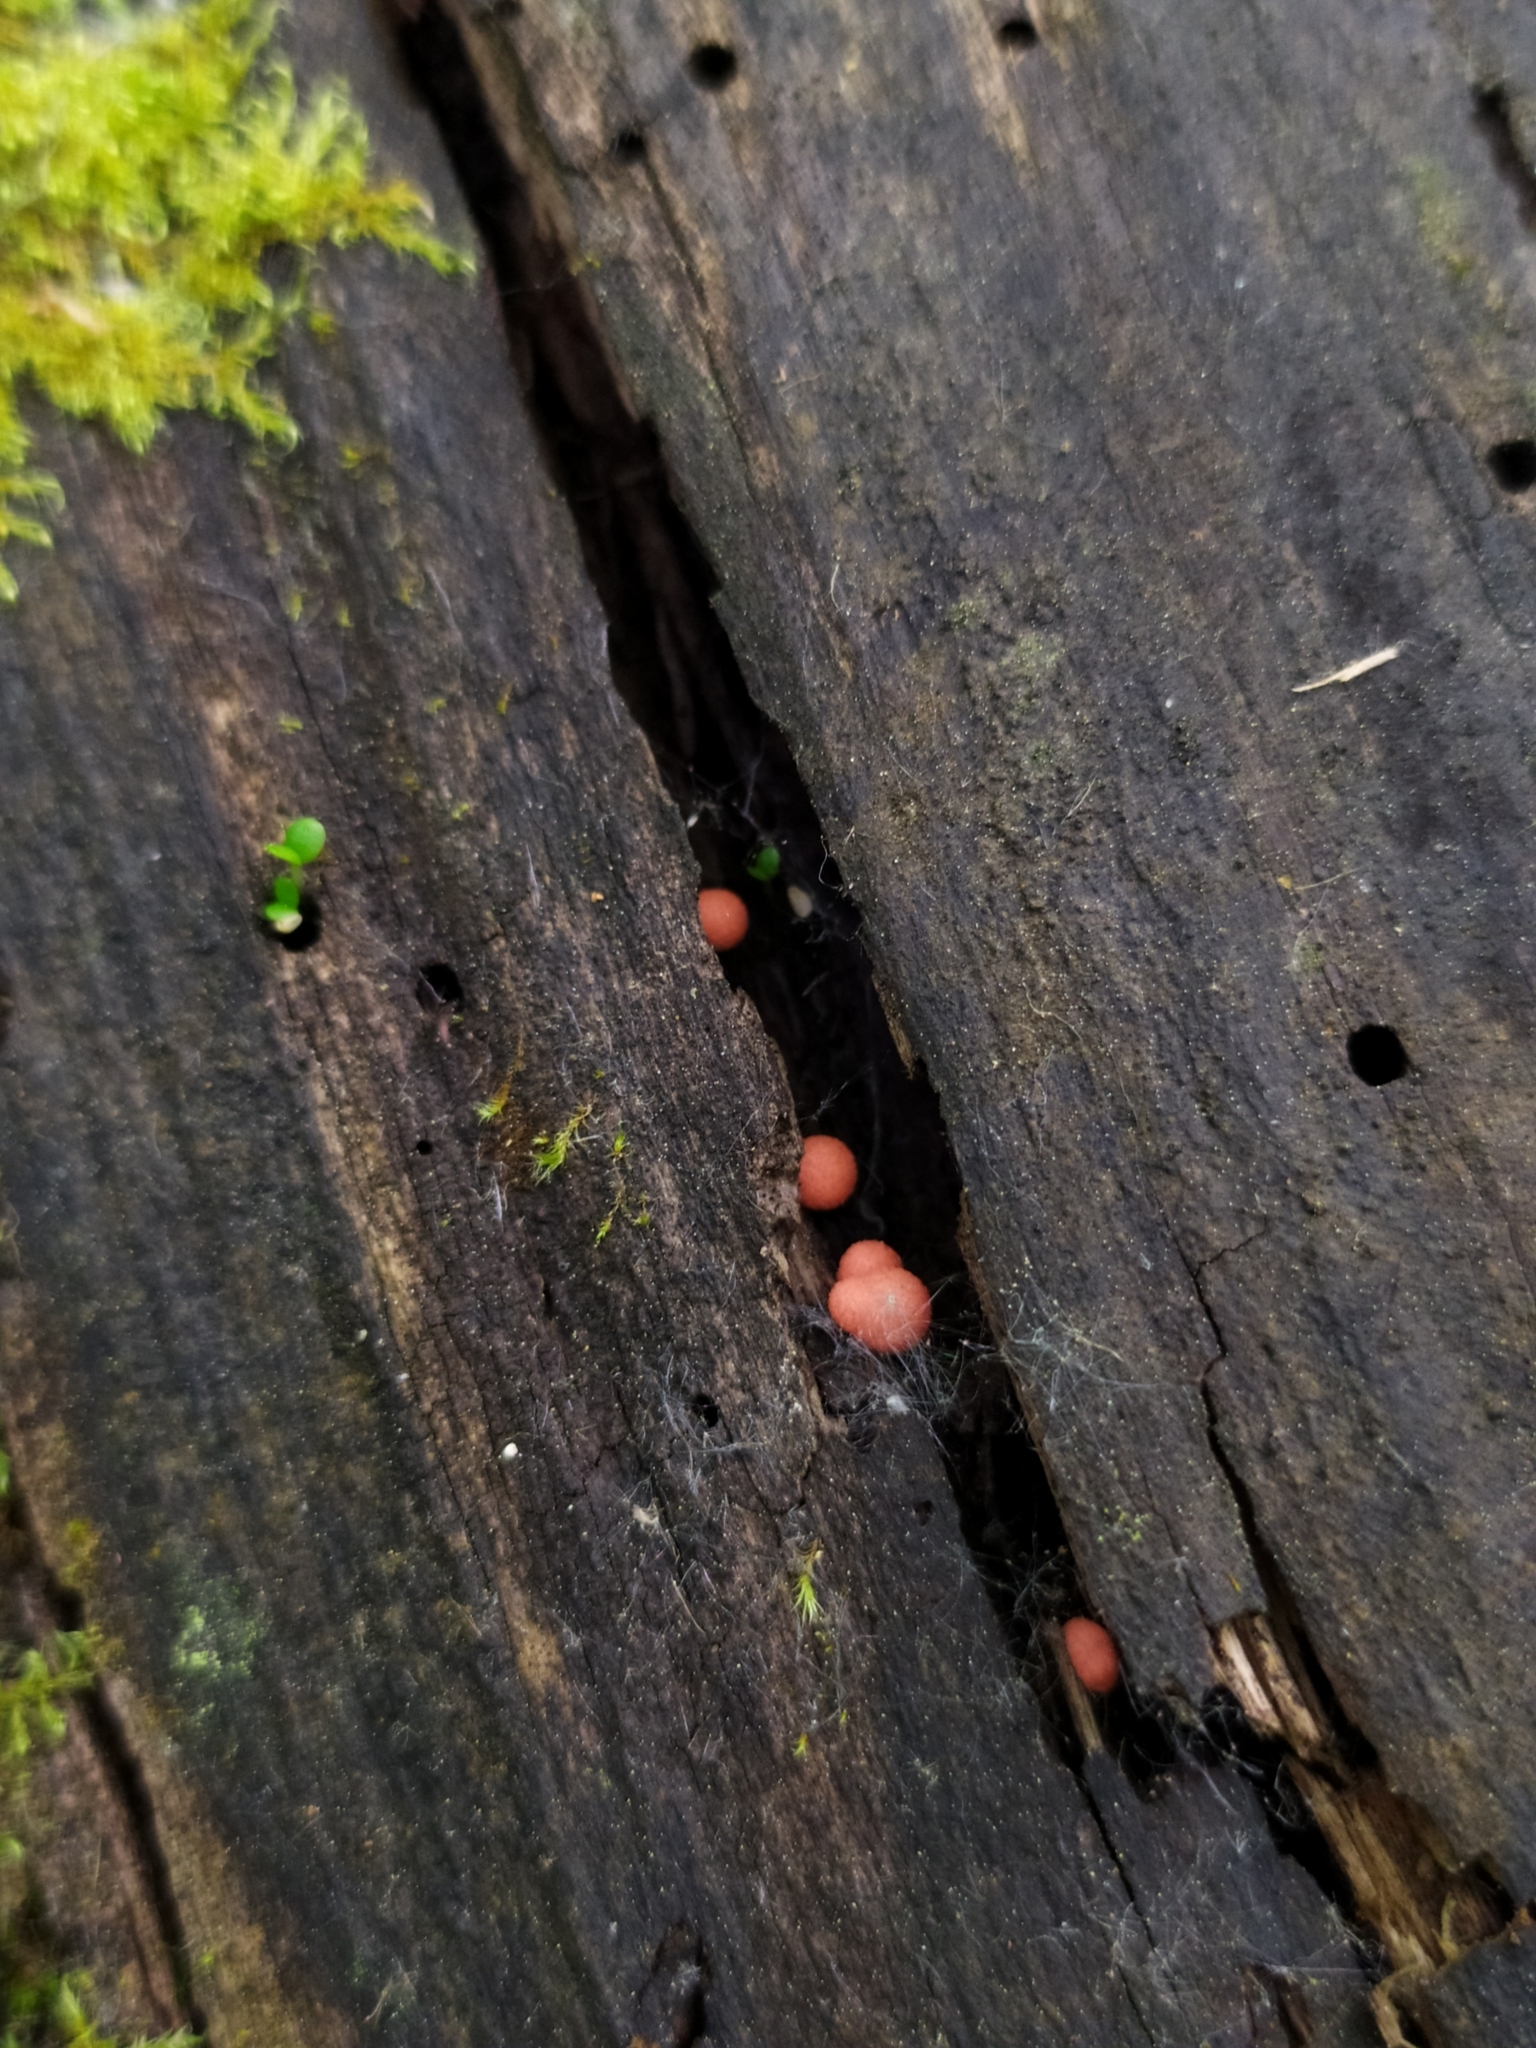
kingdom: Protozoa
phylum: Mycetozoa
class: Myxomycetes
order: Cribrariales
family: Tubiferaceae
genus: Lycogala
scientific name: Lycogala epidendrum
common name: Wolf's milk
